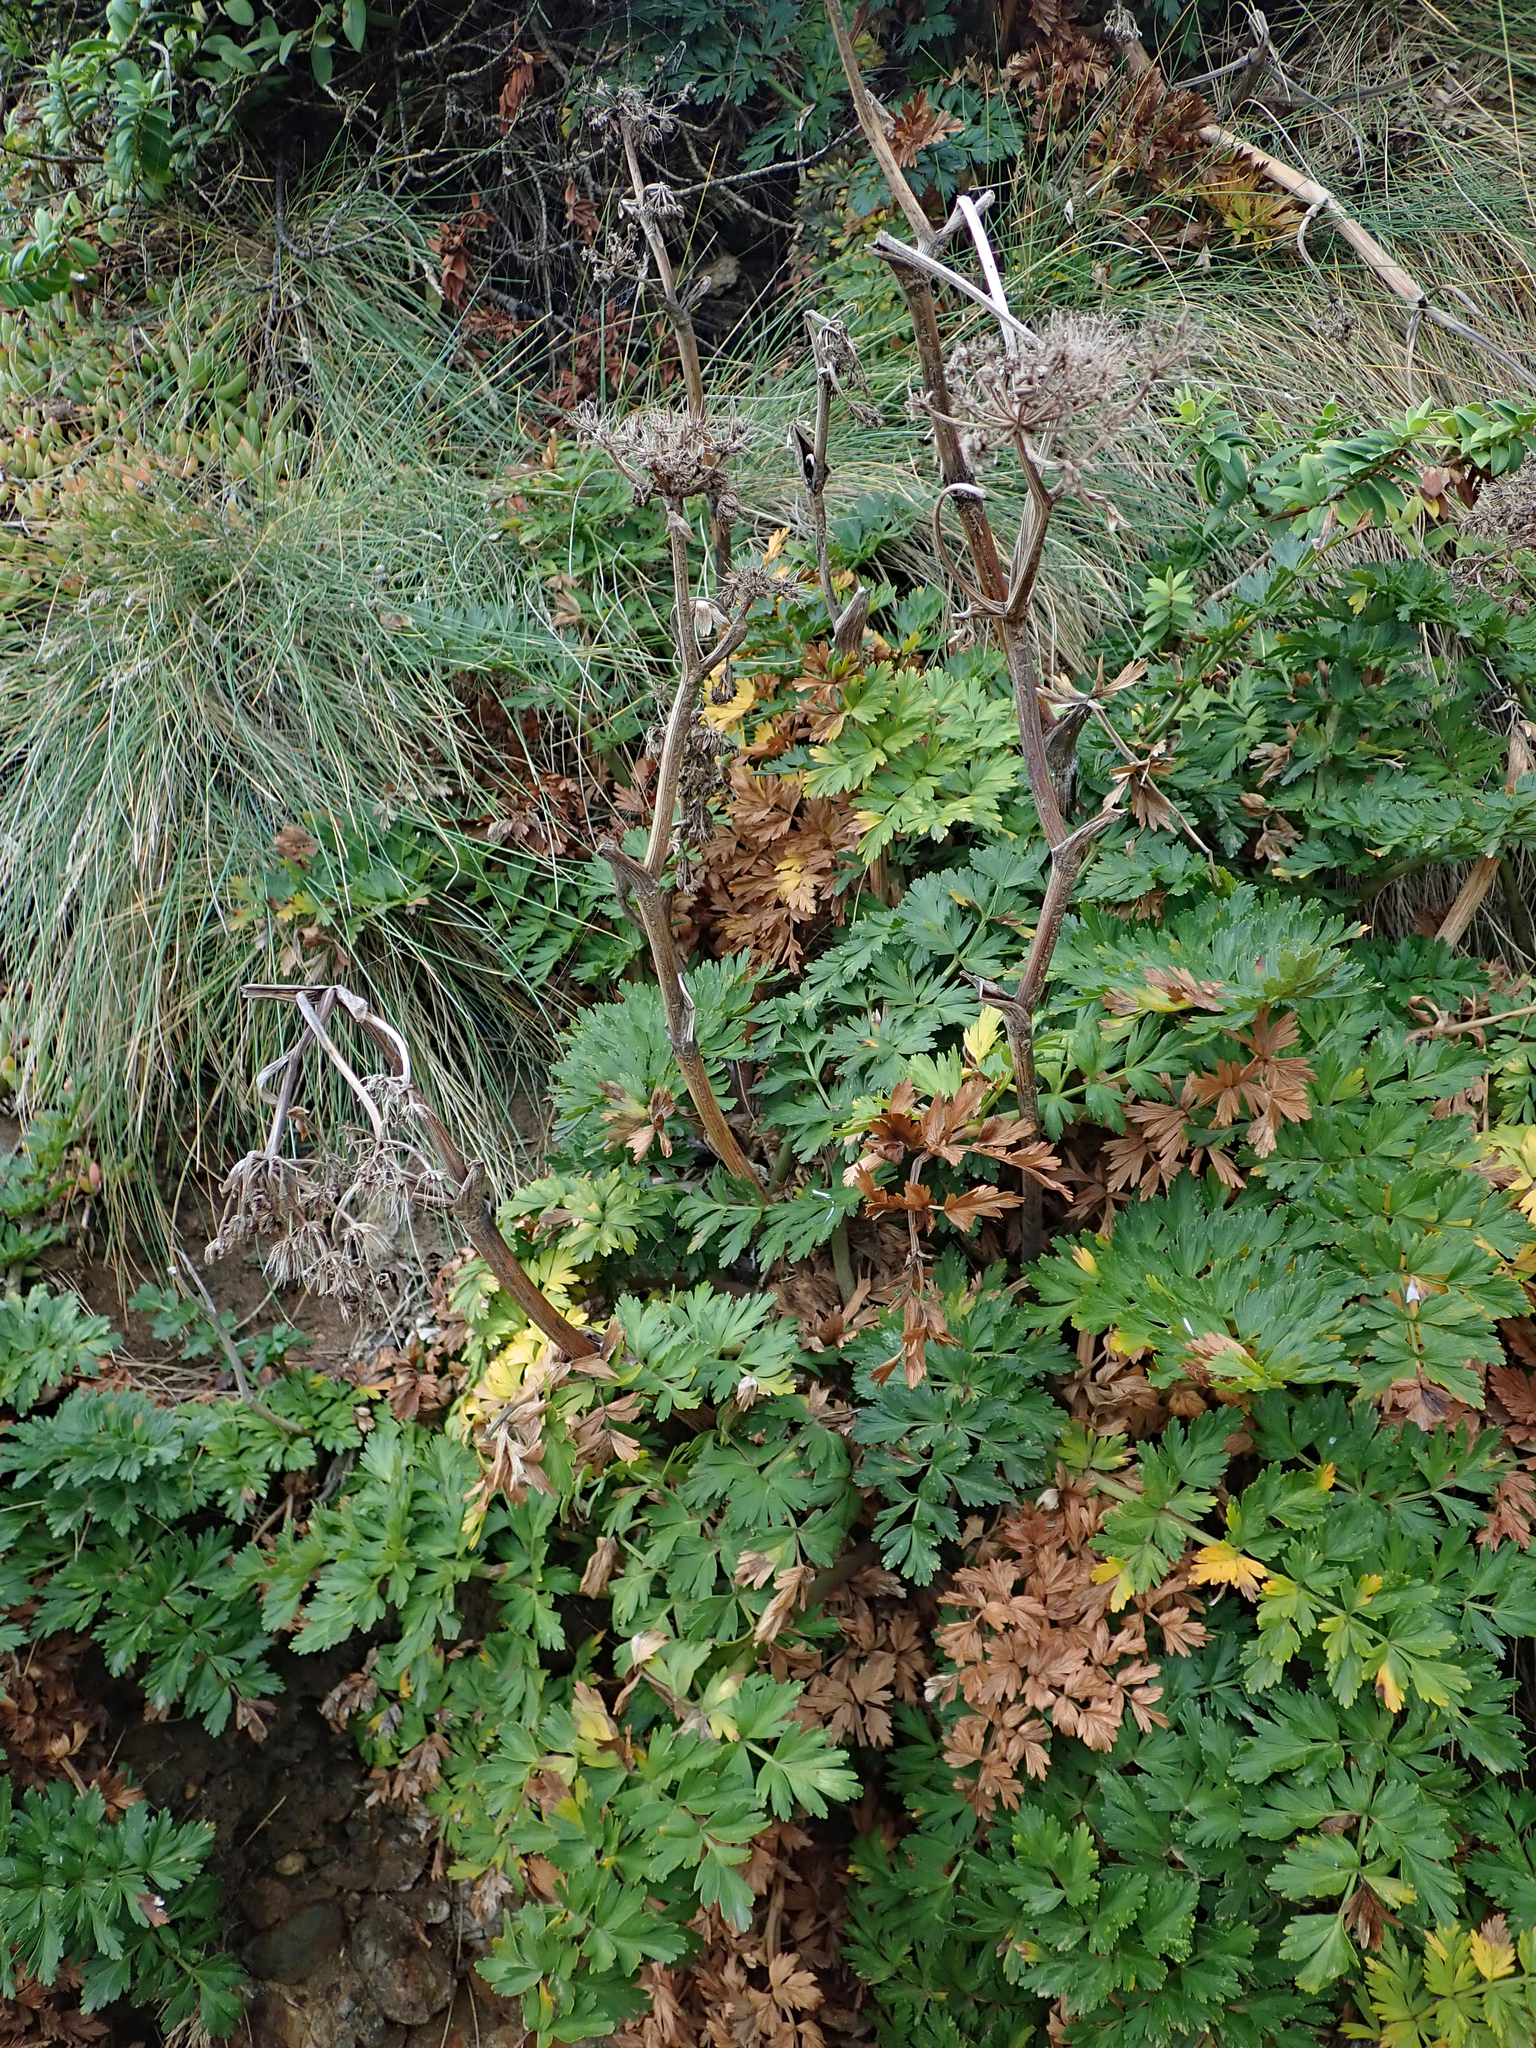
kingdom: Plantae
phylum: Tracheophyta
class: Magnoliopsida
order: Apiales
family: Apiaceae
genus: Anisotome
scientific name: Anisotome lyallii
